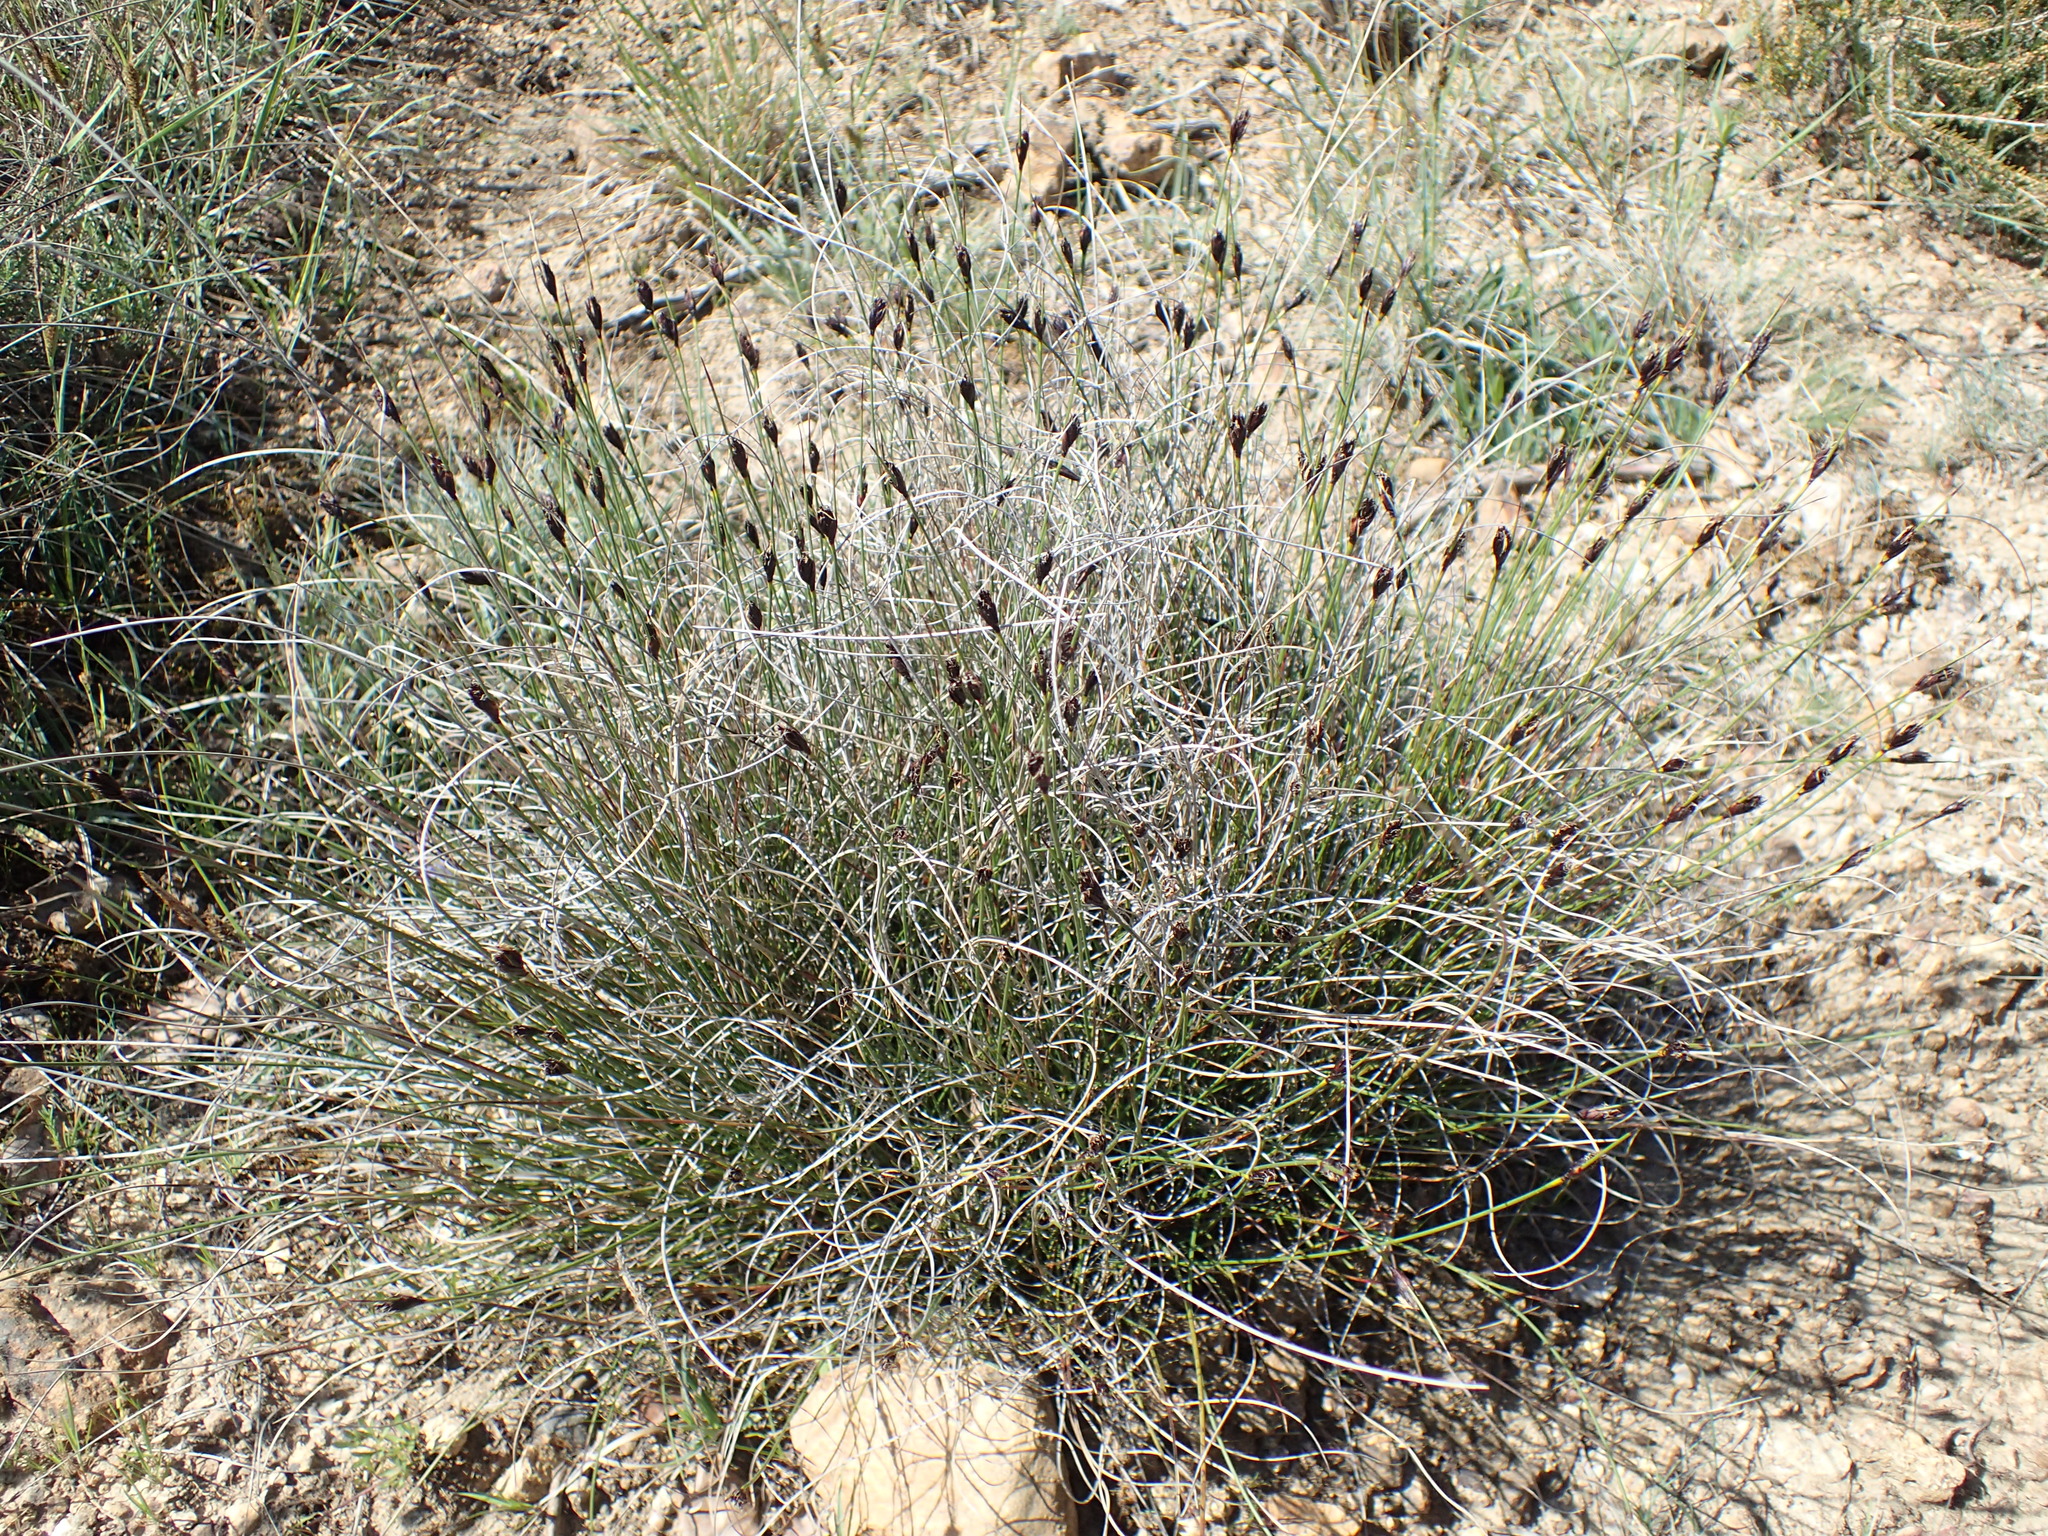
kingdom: Plantae
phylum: Tracheophyta
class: Liliopsida
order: Poales
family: Cyperaceae
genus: Schoenus
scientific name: Schoenus nigricans
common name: Black bog-rush
